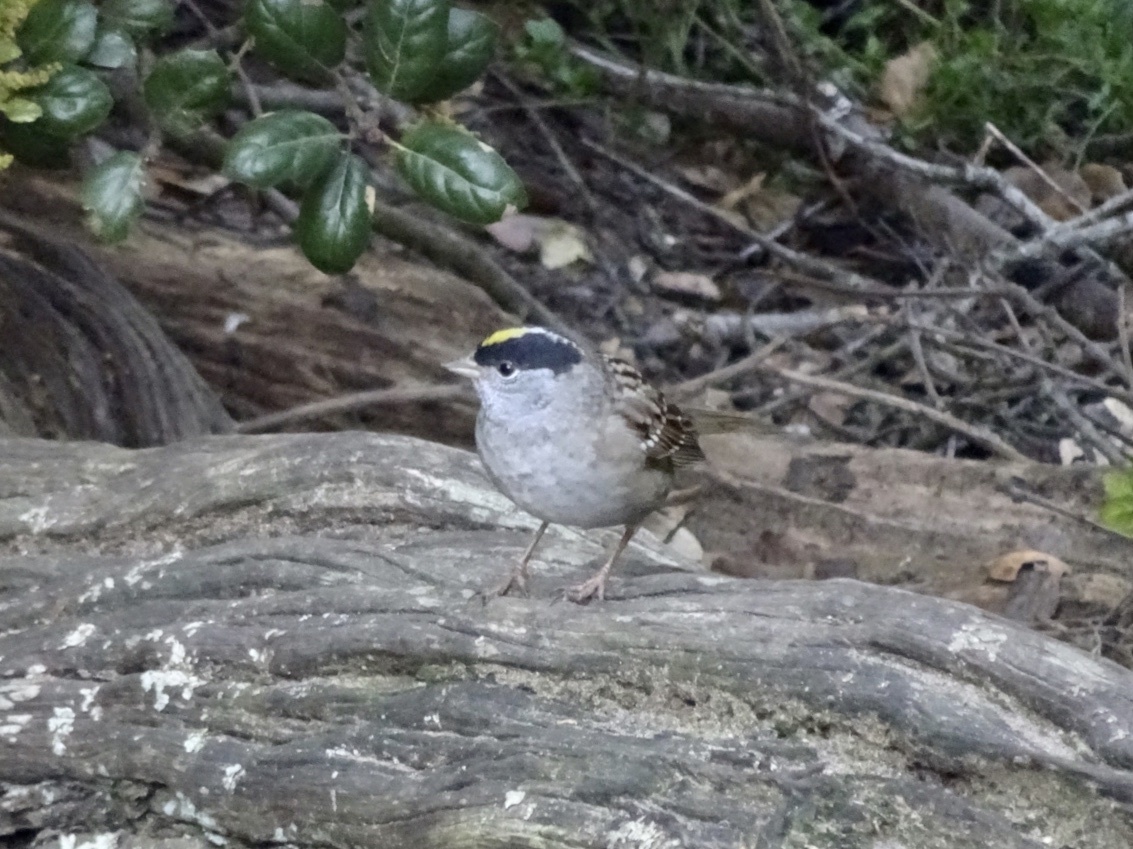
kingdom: Animalia
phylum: Chordata
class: Aves
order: Passeriformes
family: Passerellidae
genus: Zonotrichia
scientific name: Zonotrichia atricapilla
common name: Golden-crowned sparrow
